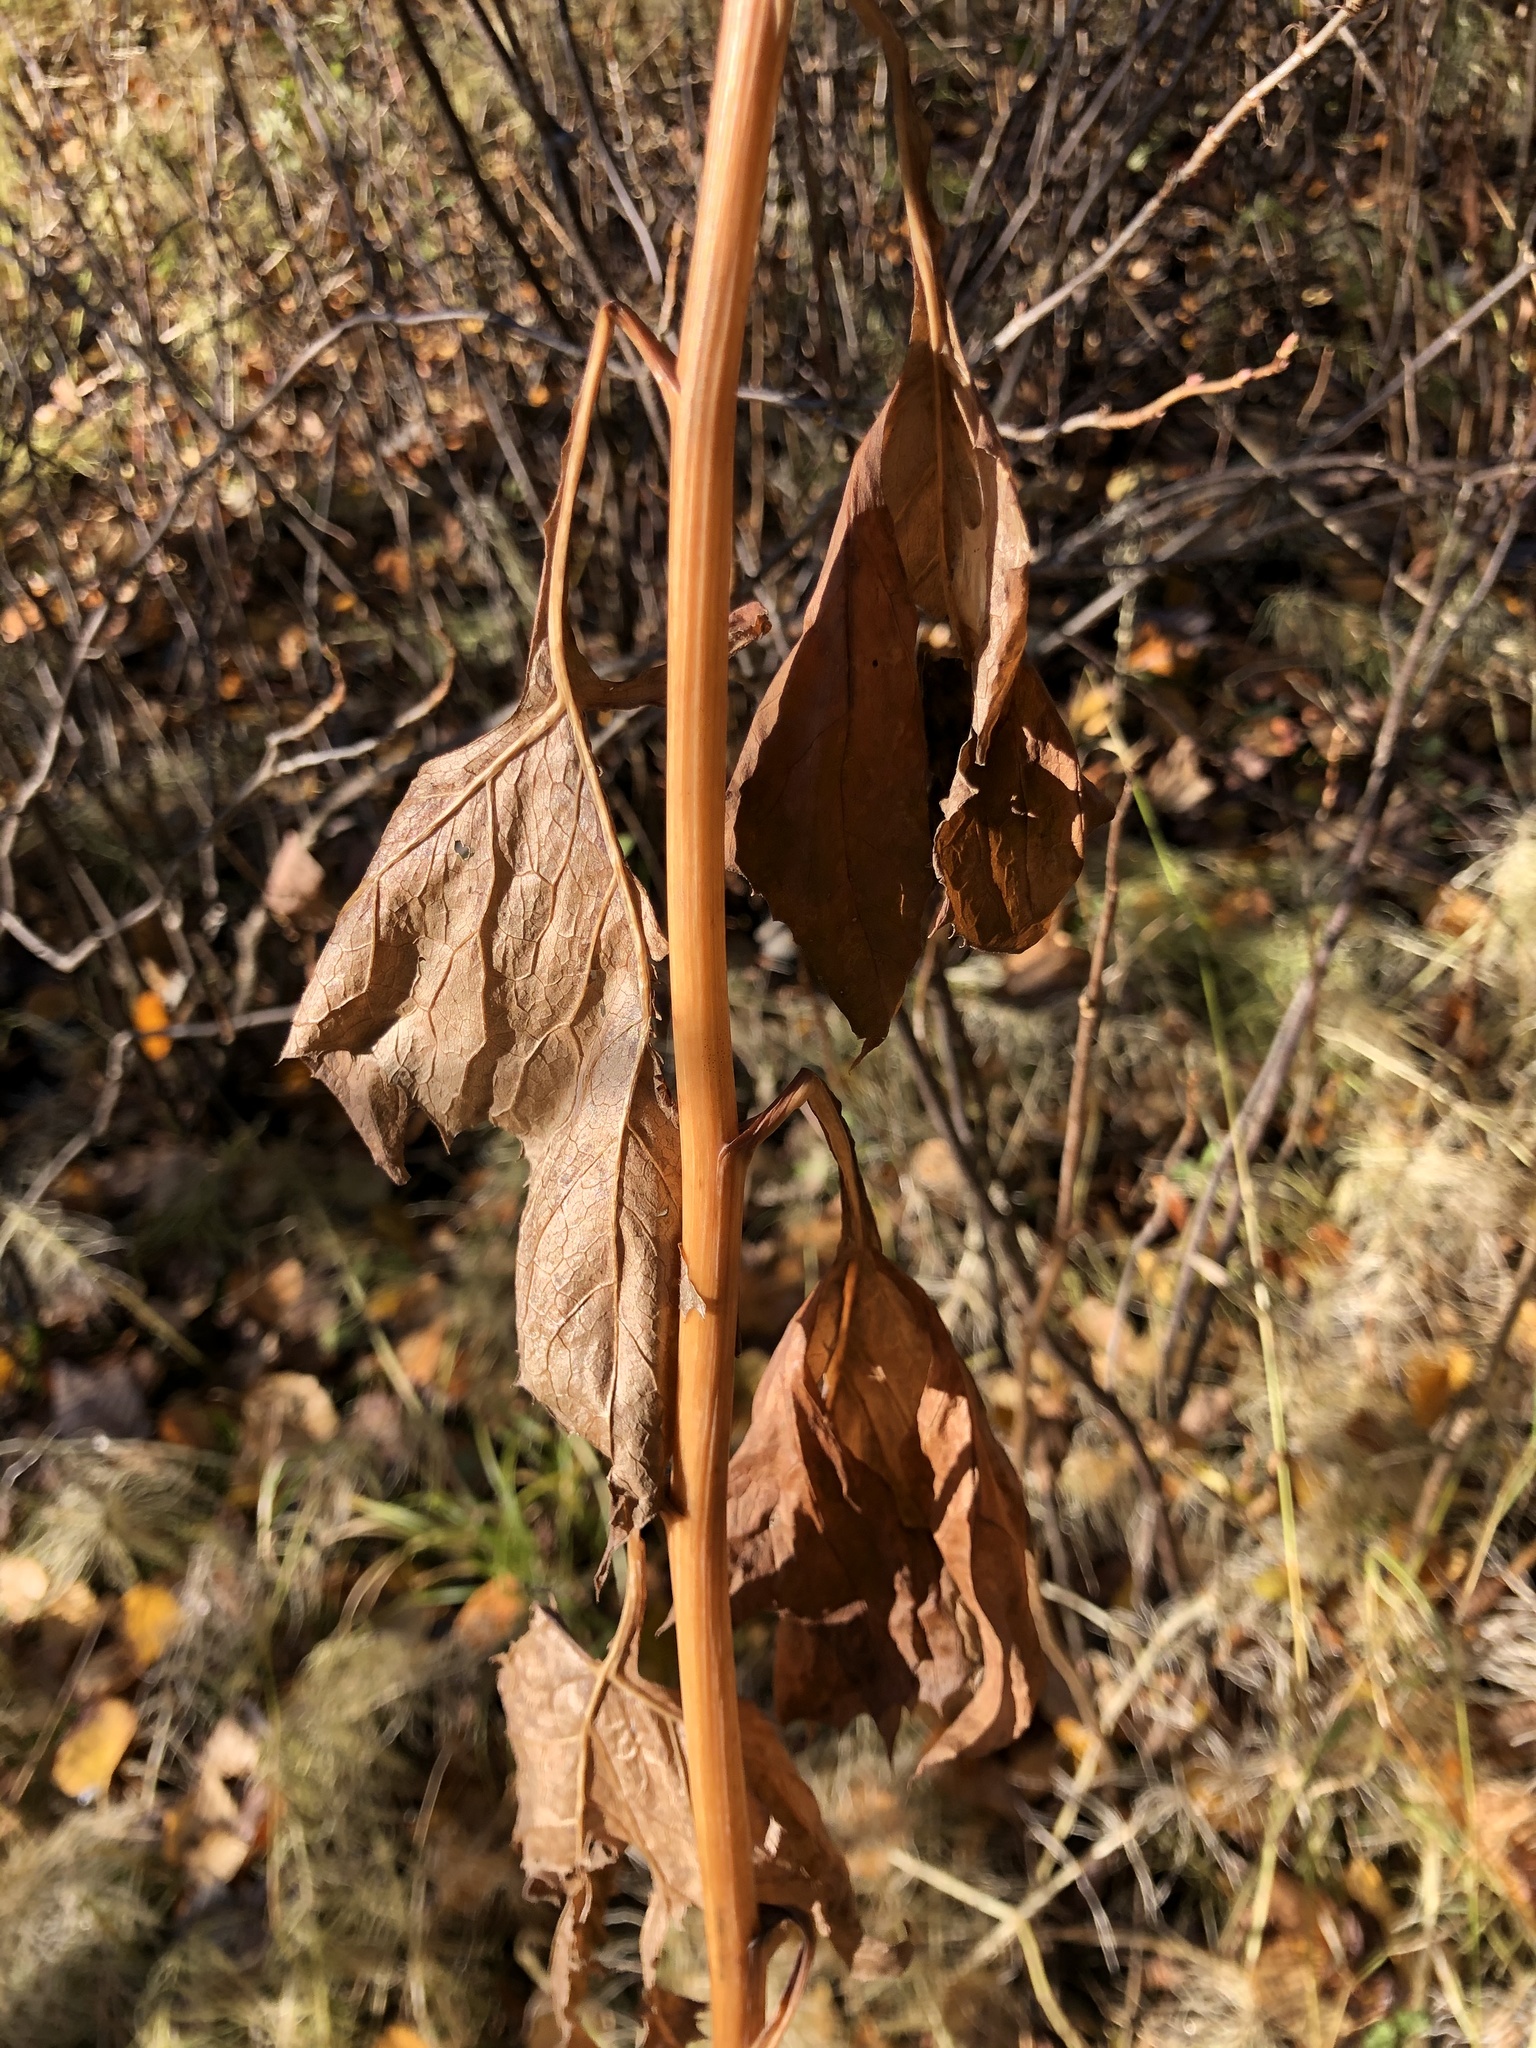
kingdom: Plantae
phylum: Tracheophyta
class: Magnoliopsida
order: Asterales
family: Asteraceae
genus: Parasenecio
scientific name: Parasenecio hastatus
